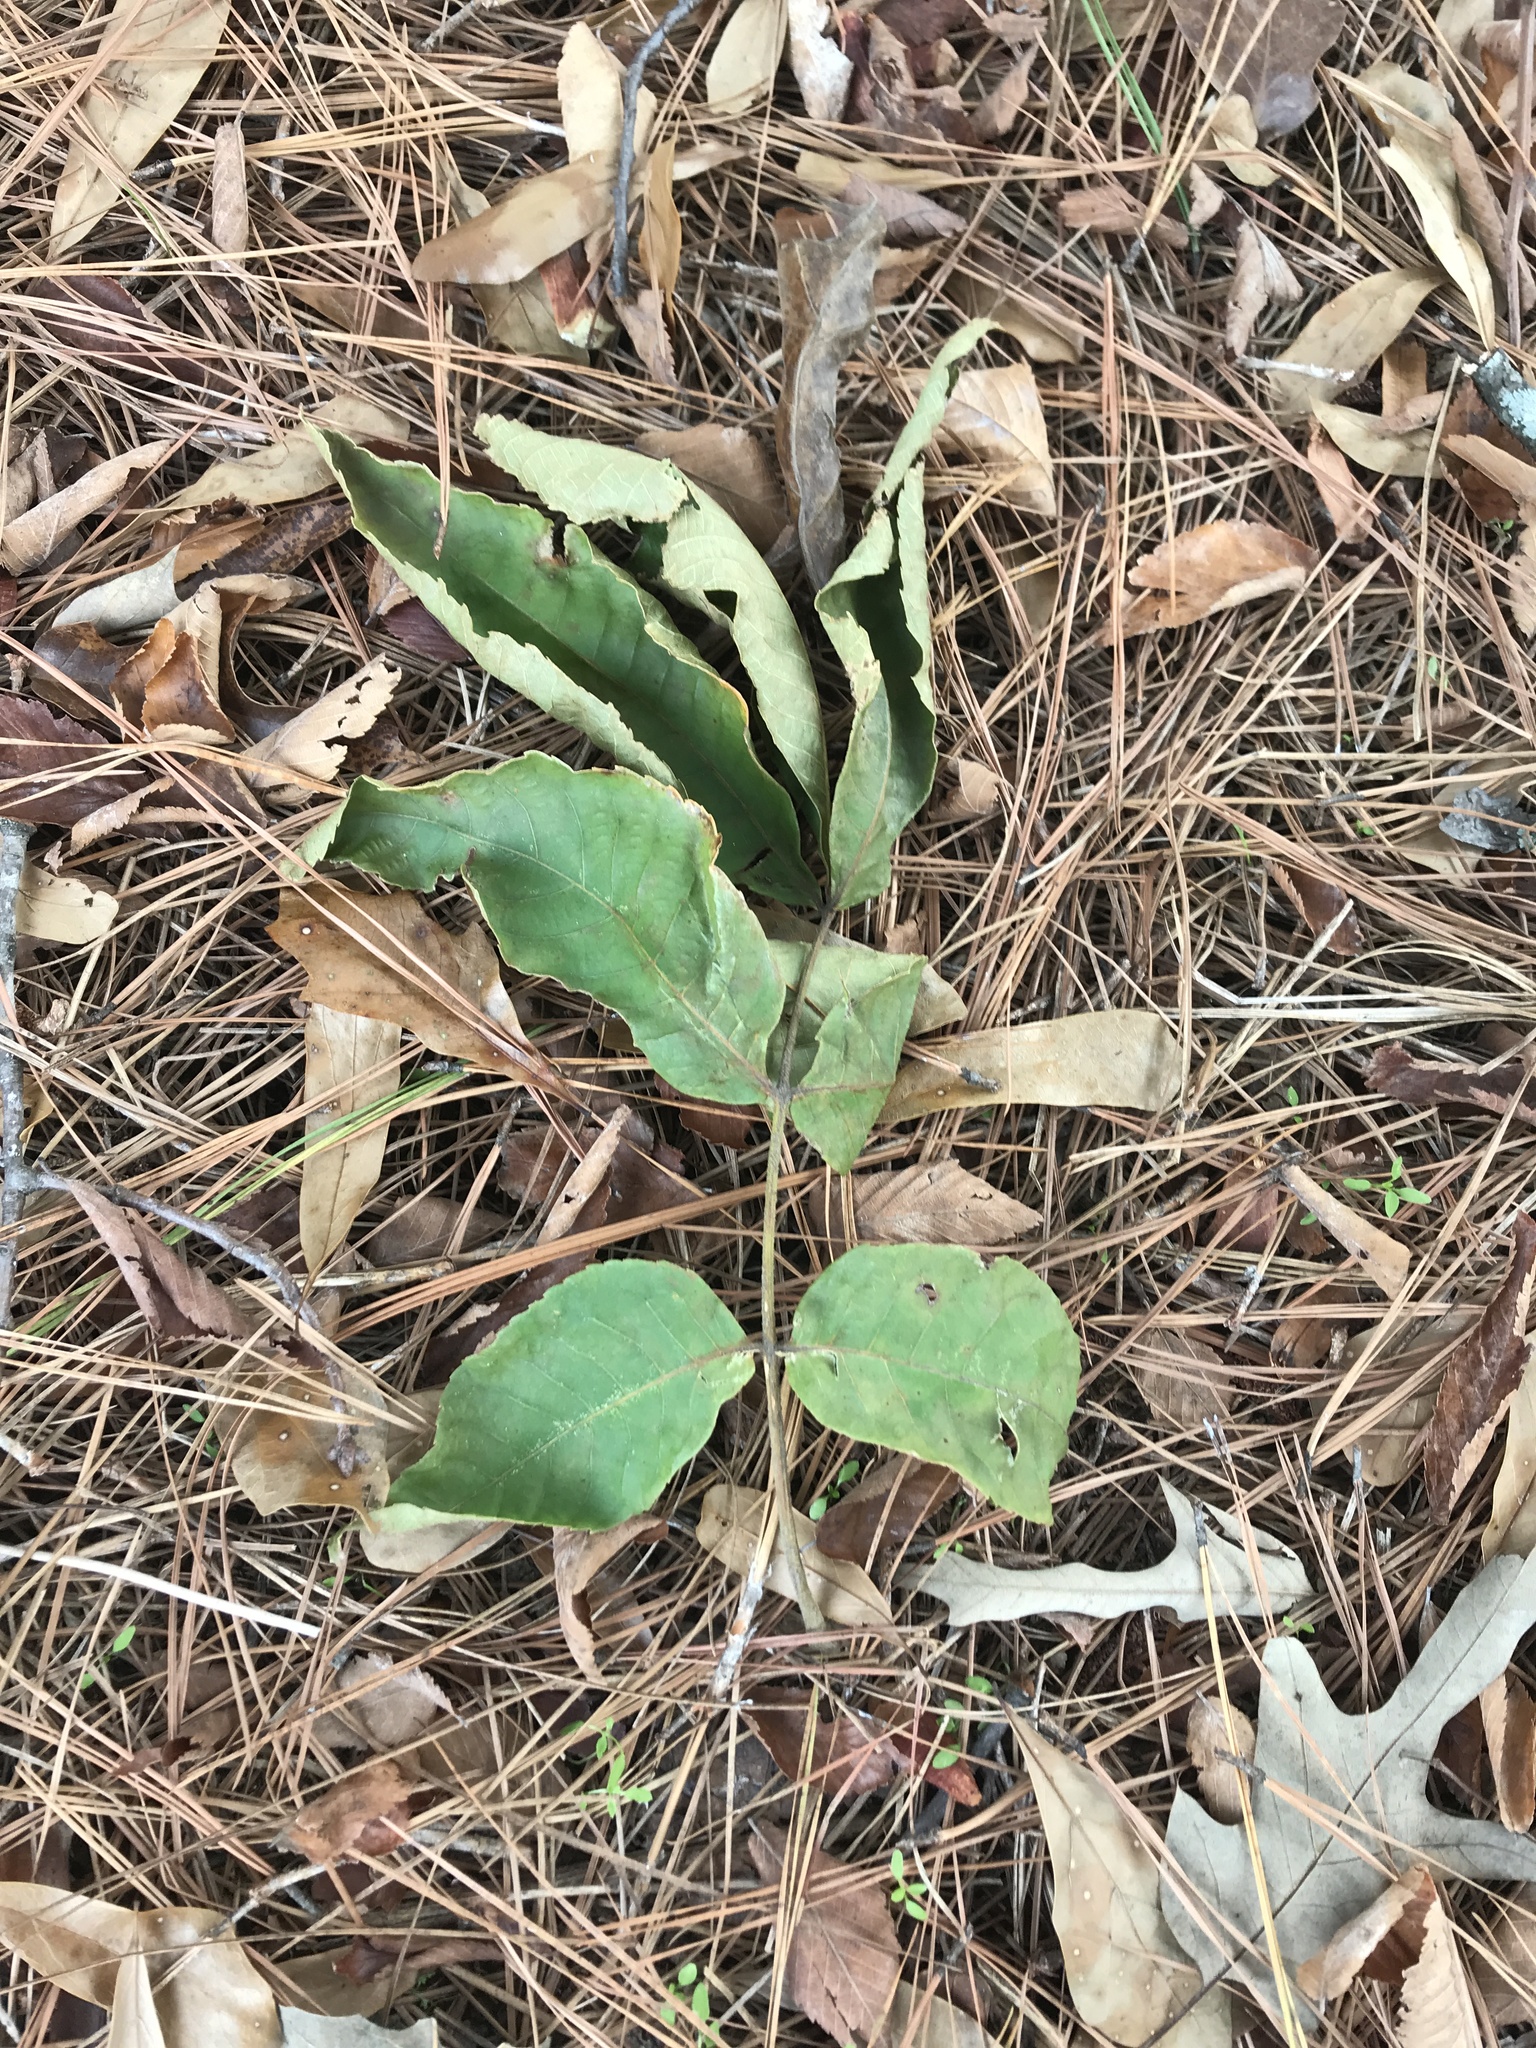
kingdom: Plantae
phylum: Tracheophyta
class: Magnoliopsida
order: Fagales
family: Juglandaceae
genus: Carya
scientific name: Carya alba
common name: Mockernut hickory
